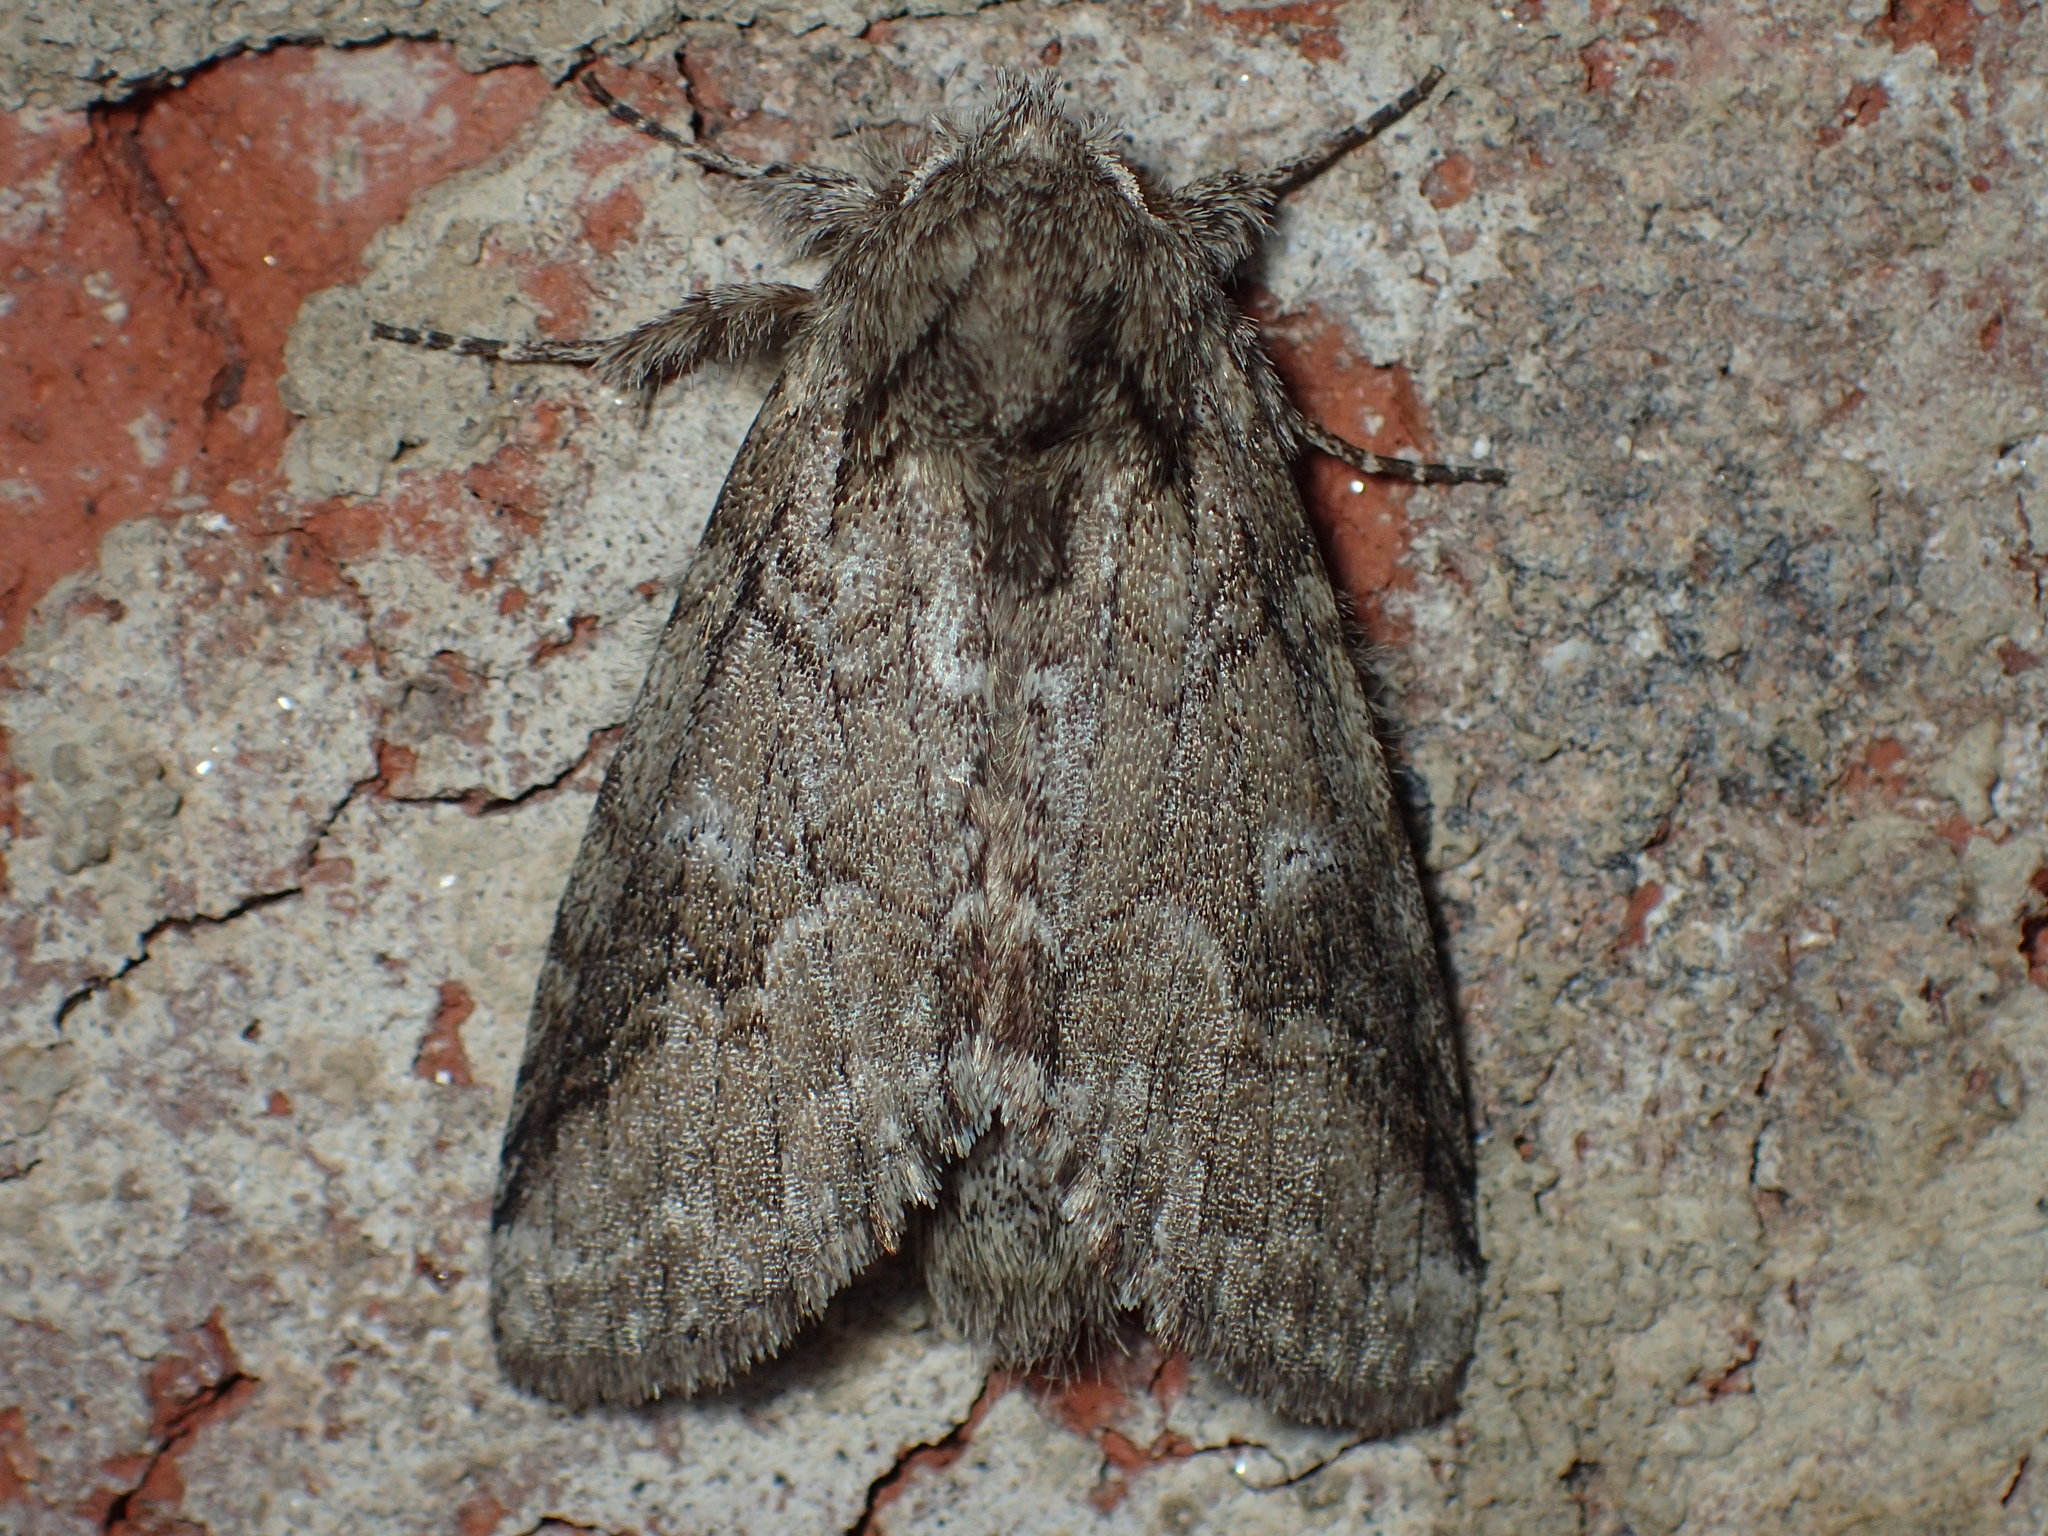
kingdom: Animalia
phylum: Arthropoda
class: Insecta
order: Lepidoptera
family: Notodontidae
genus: Lochmaeus
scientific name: Lochmaeus bilineata
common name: Double-lined prominent
